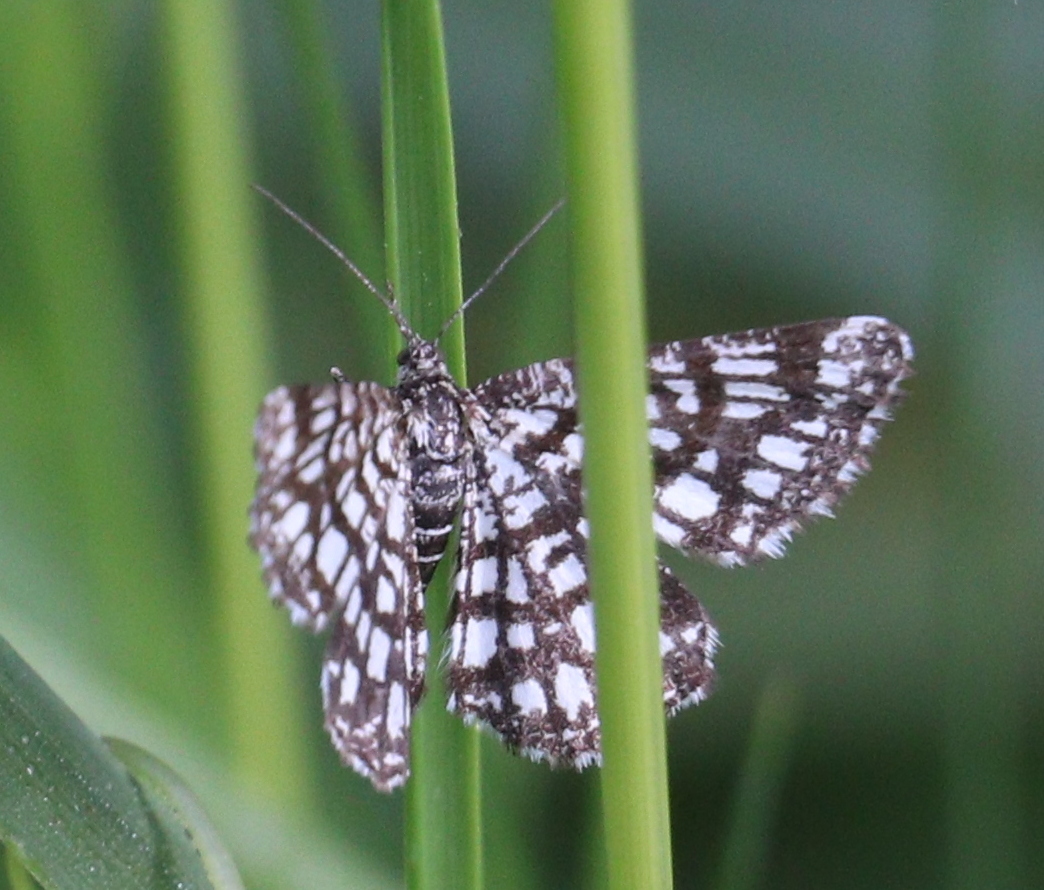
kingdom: Animalia
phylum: Arthropoda
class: Insecta
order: Lepidoptera
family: Geometridae
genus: Chiasmia
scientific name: Chiasmia clathrata
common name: Latticed heath
